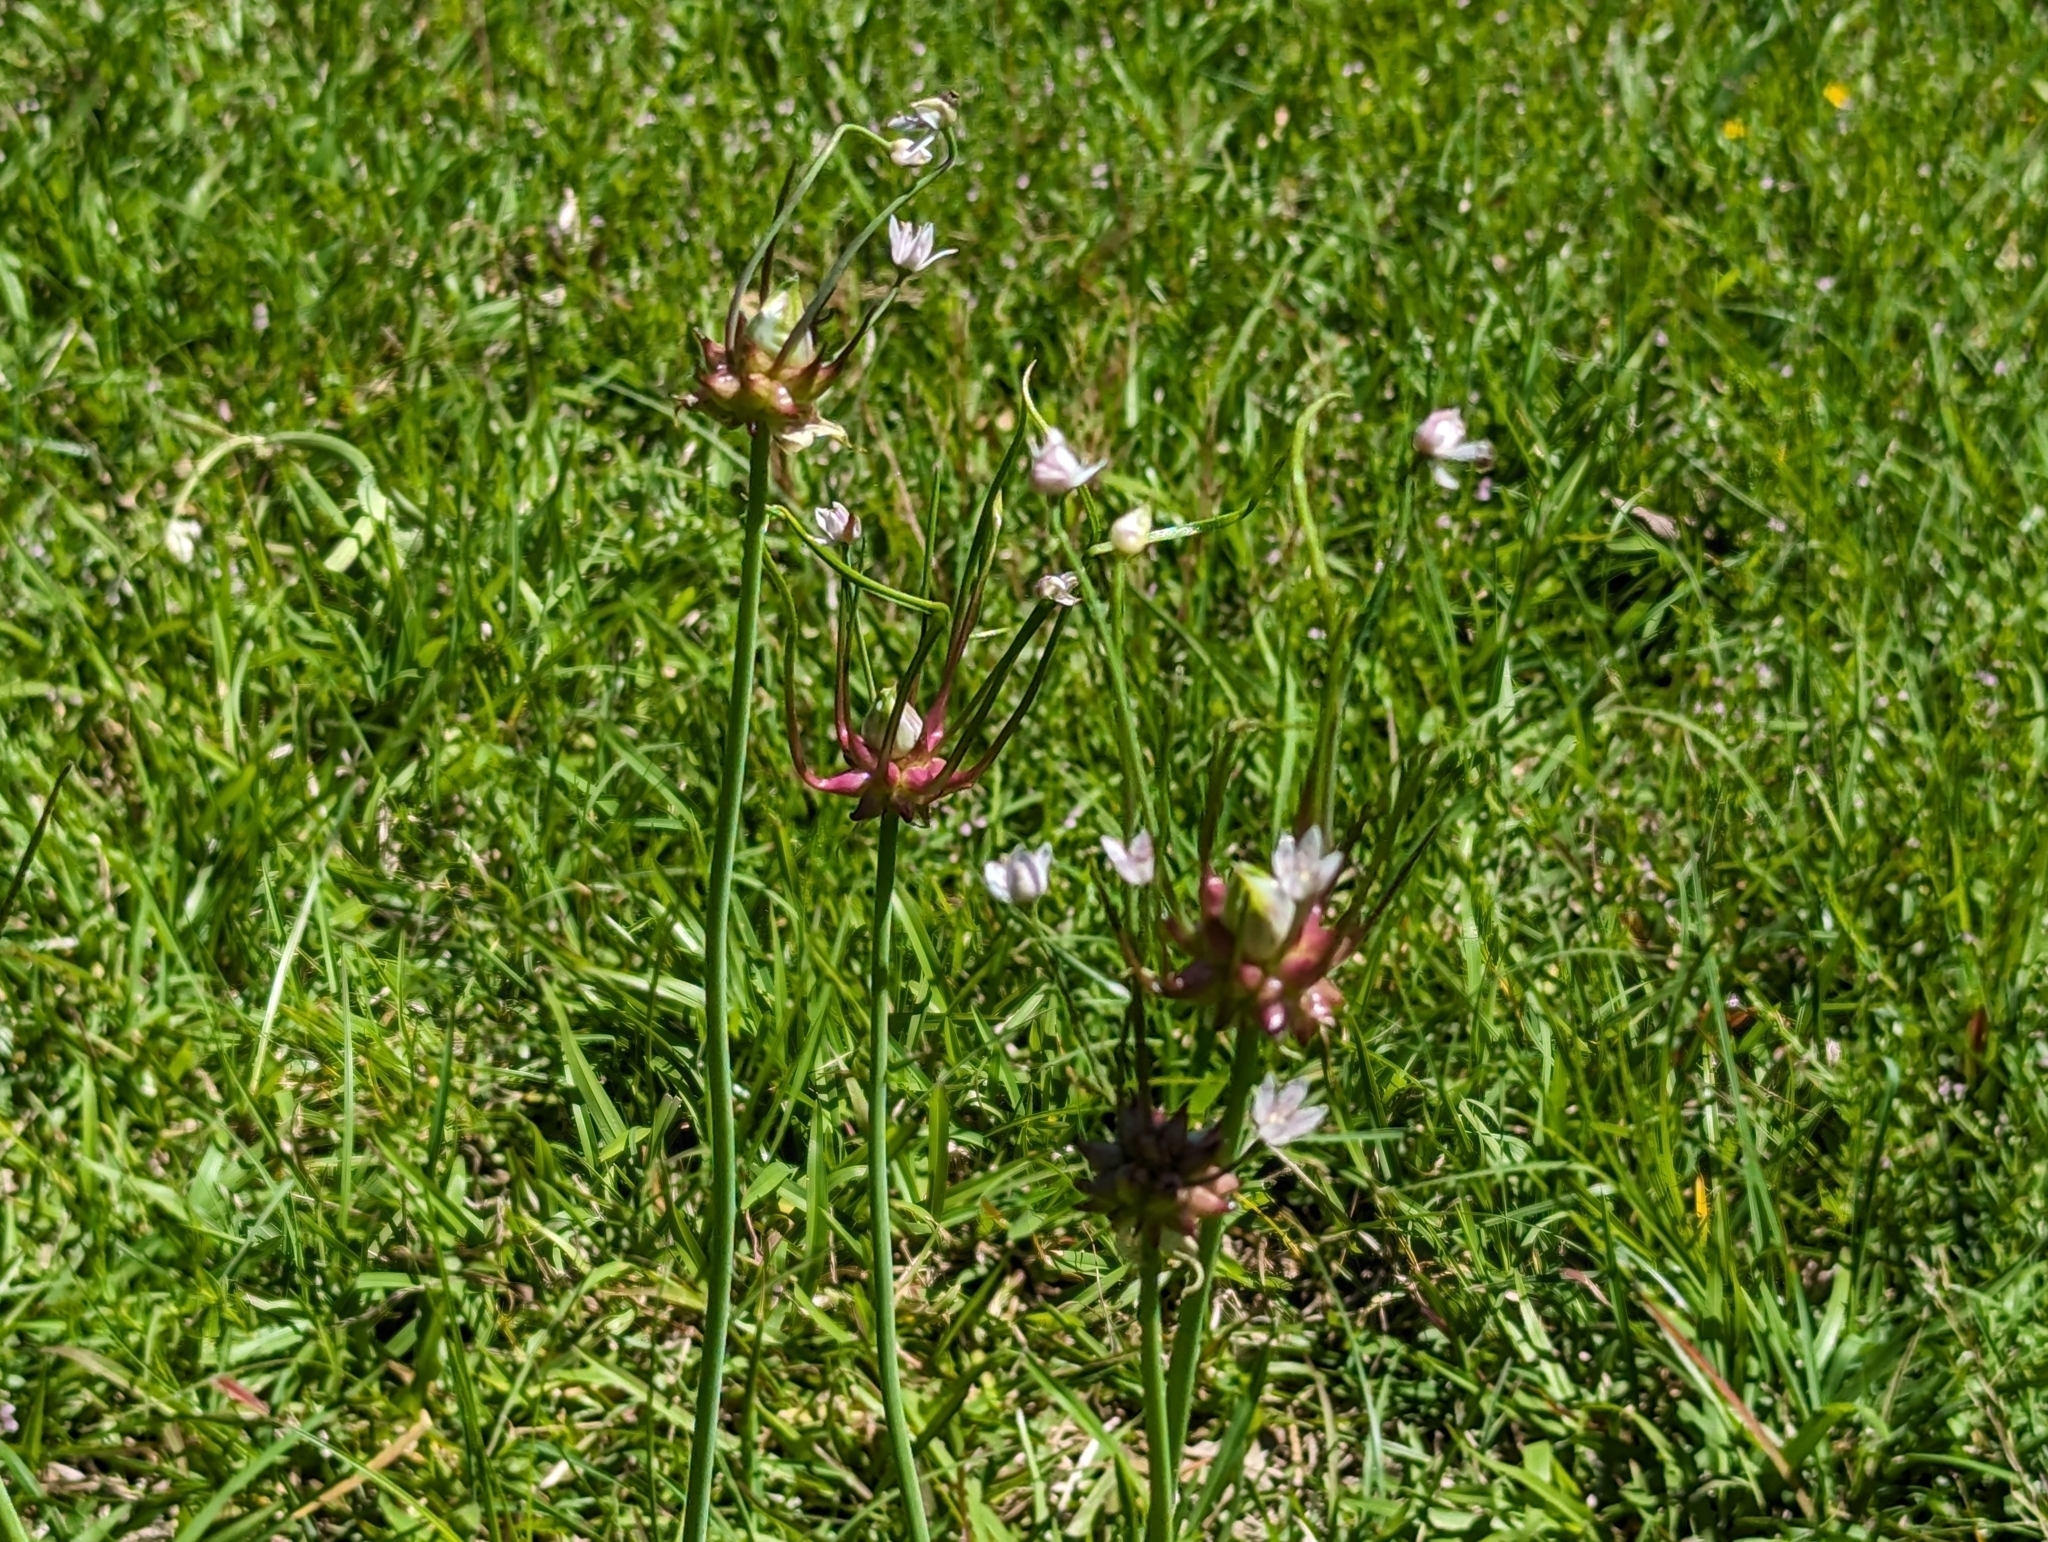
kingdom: Plantae
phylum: Tracheophyta
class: Liliopsida
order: Asparagales
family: Amaryllidaceae
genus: Allium
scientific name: Allium canadense
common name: Meadow garlic
